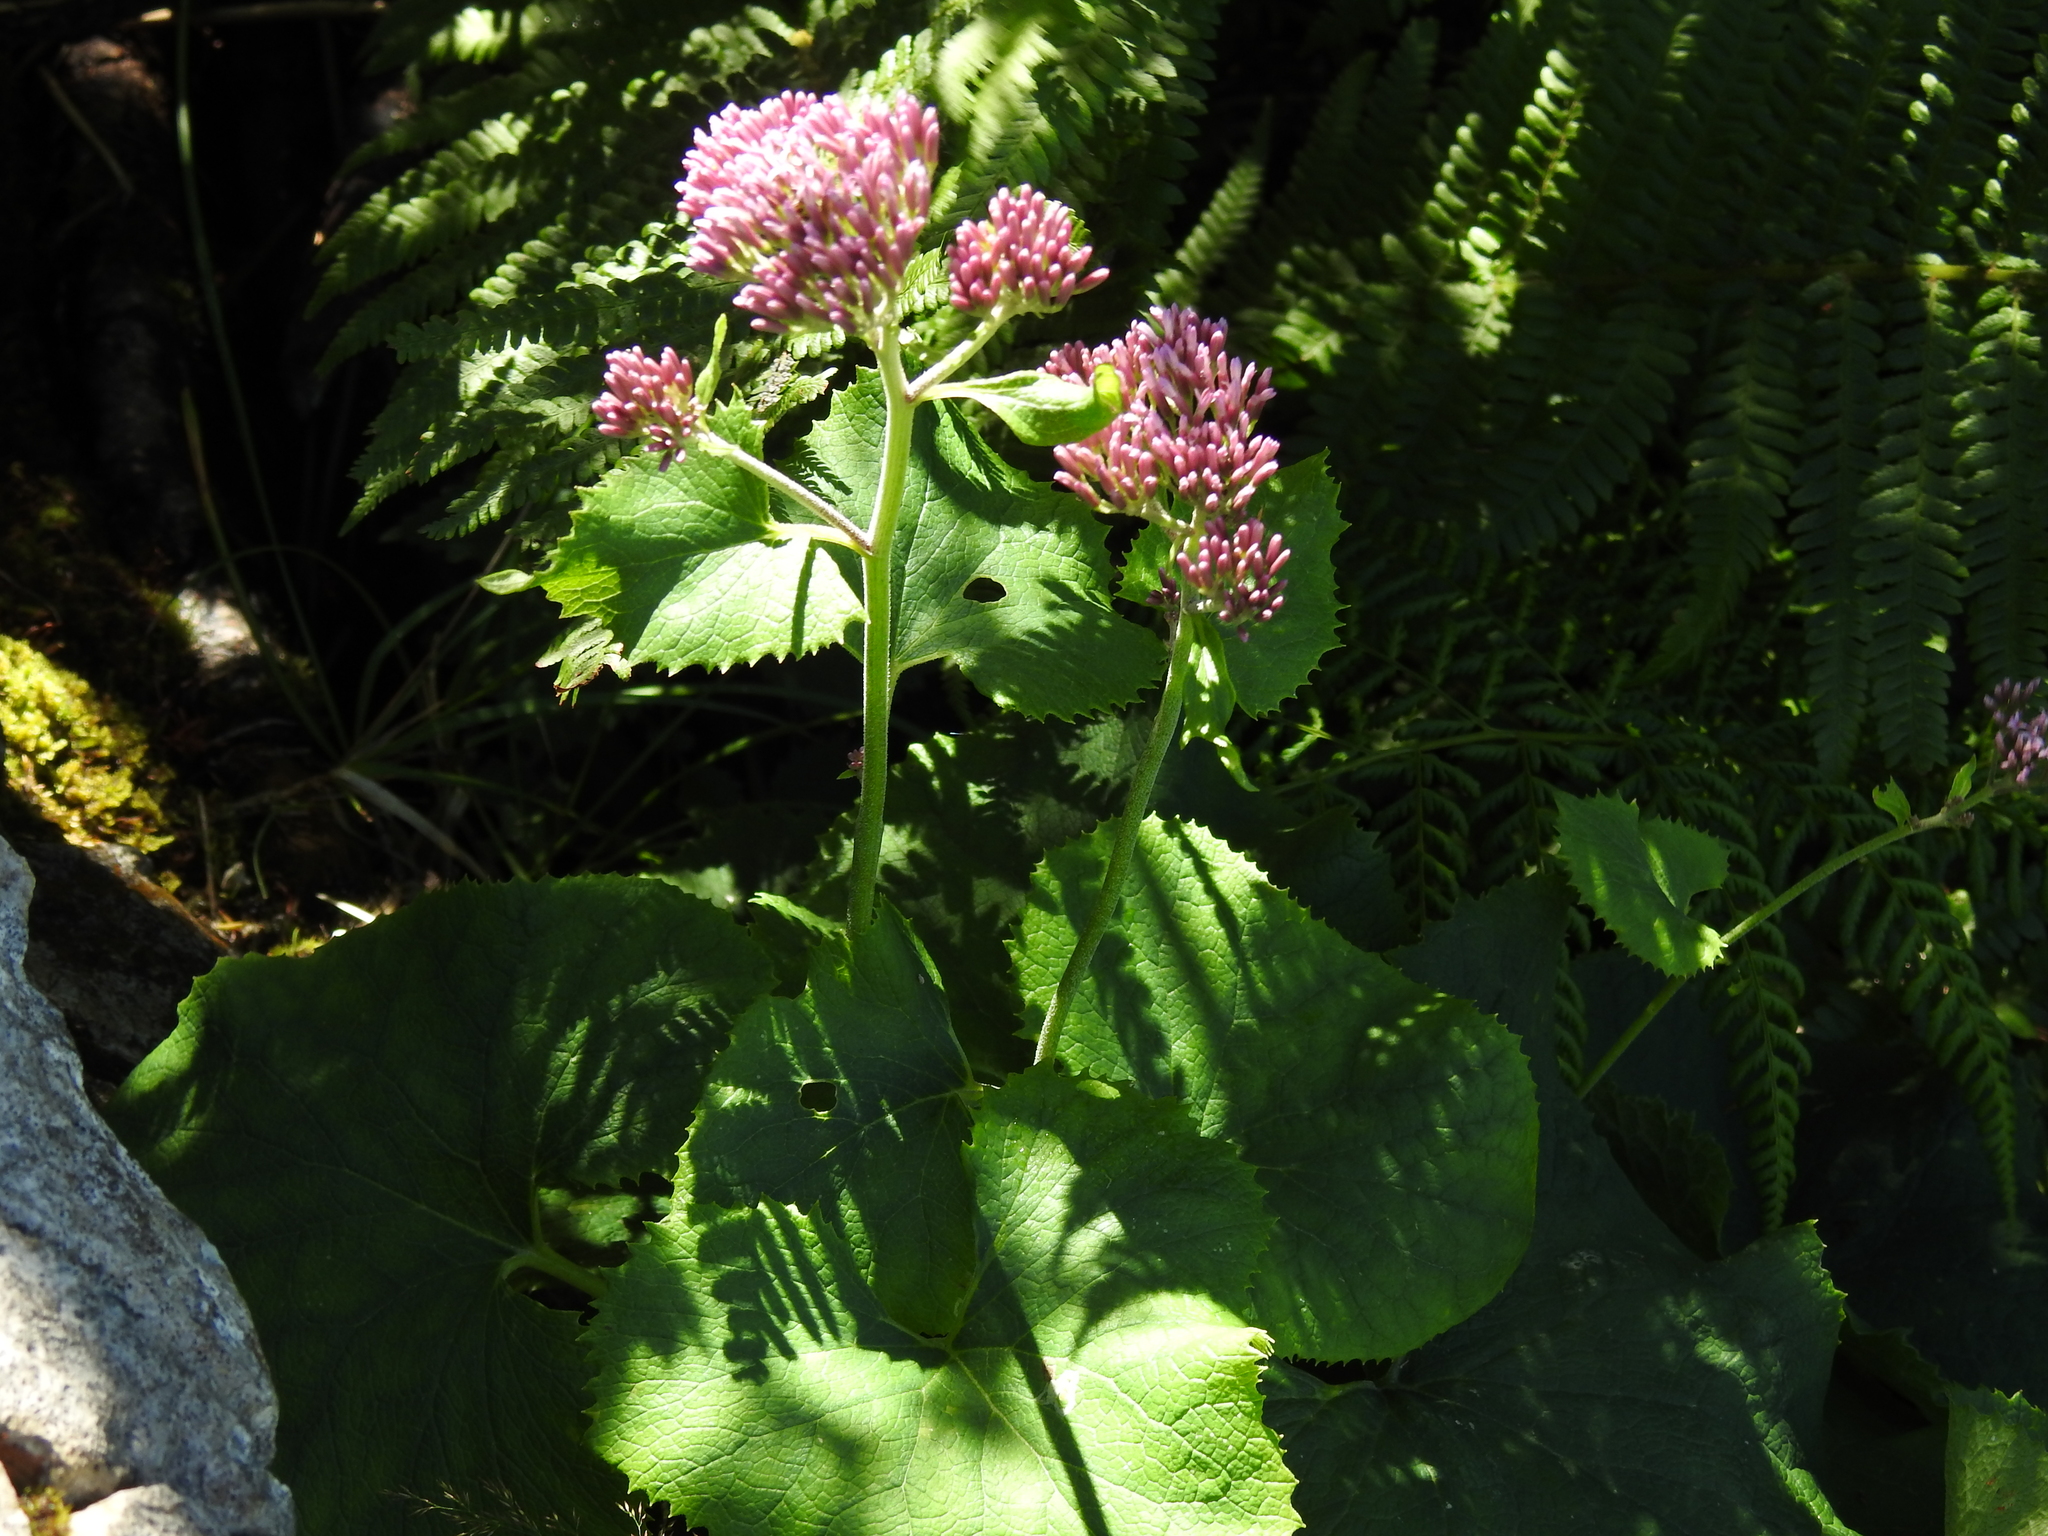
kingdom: Plantae
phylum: Tracheophyta
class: Magnoliopsida
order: Asterales
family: Asteraceae
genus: Adenostyles
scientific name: Adenostyles alpina
